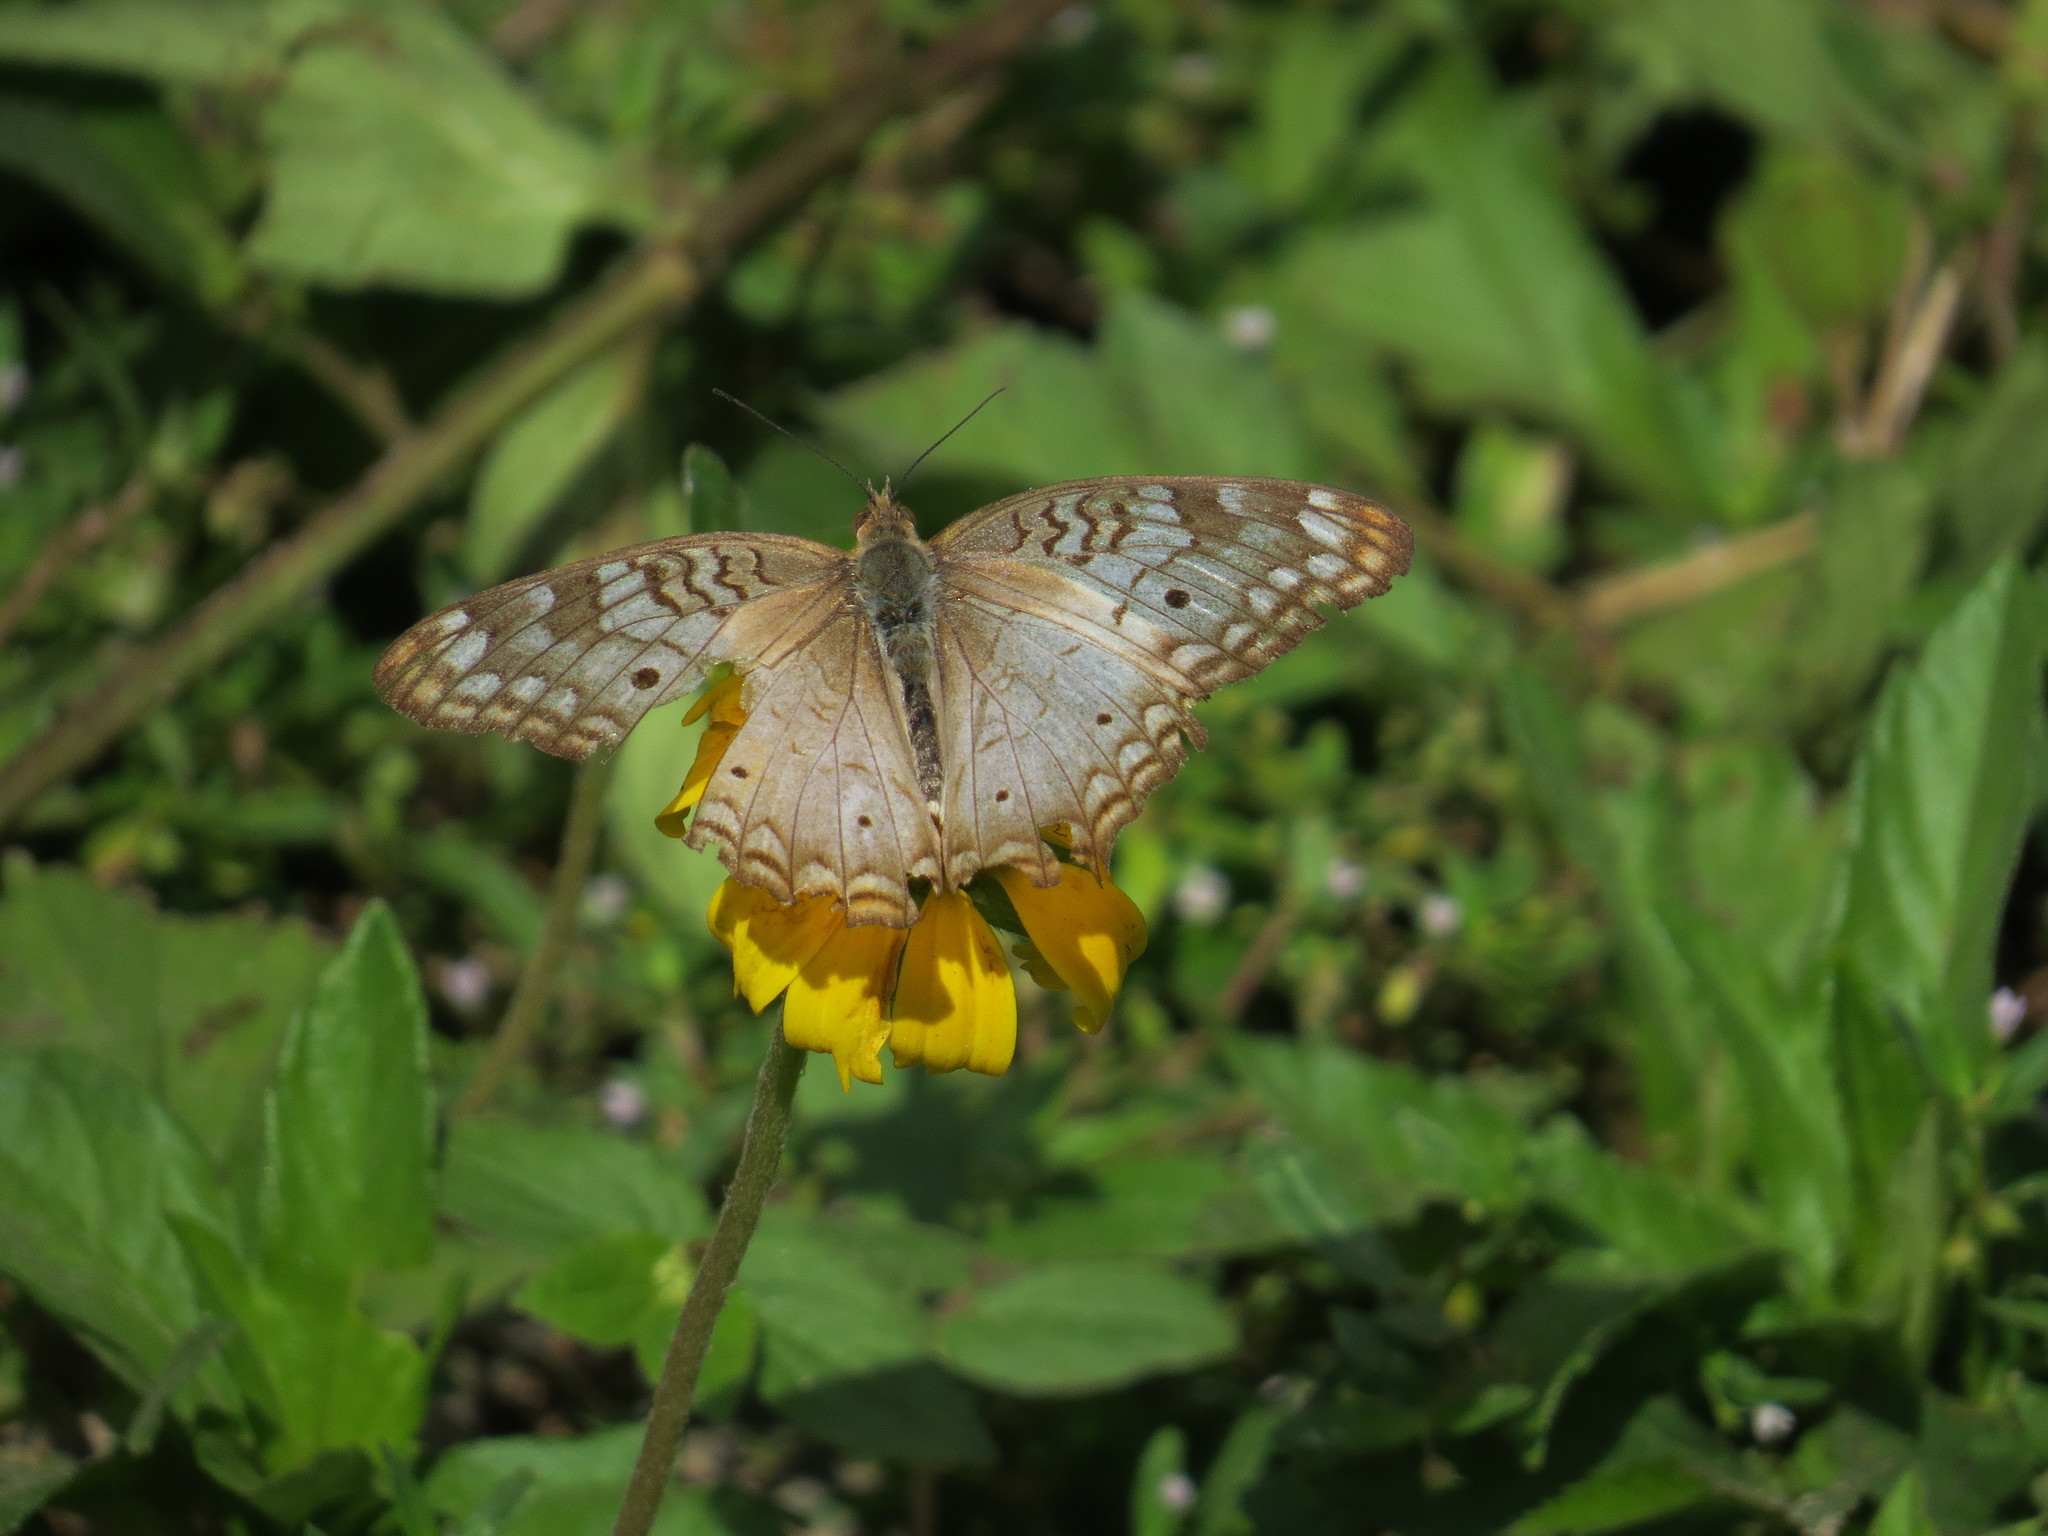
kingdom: Animalia
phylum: Arthropoda
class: Insecta
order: Lepidoptera
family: Nymphalidae
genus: Anartia
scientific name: Anartia jatrophae
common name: White peacock
